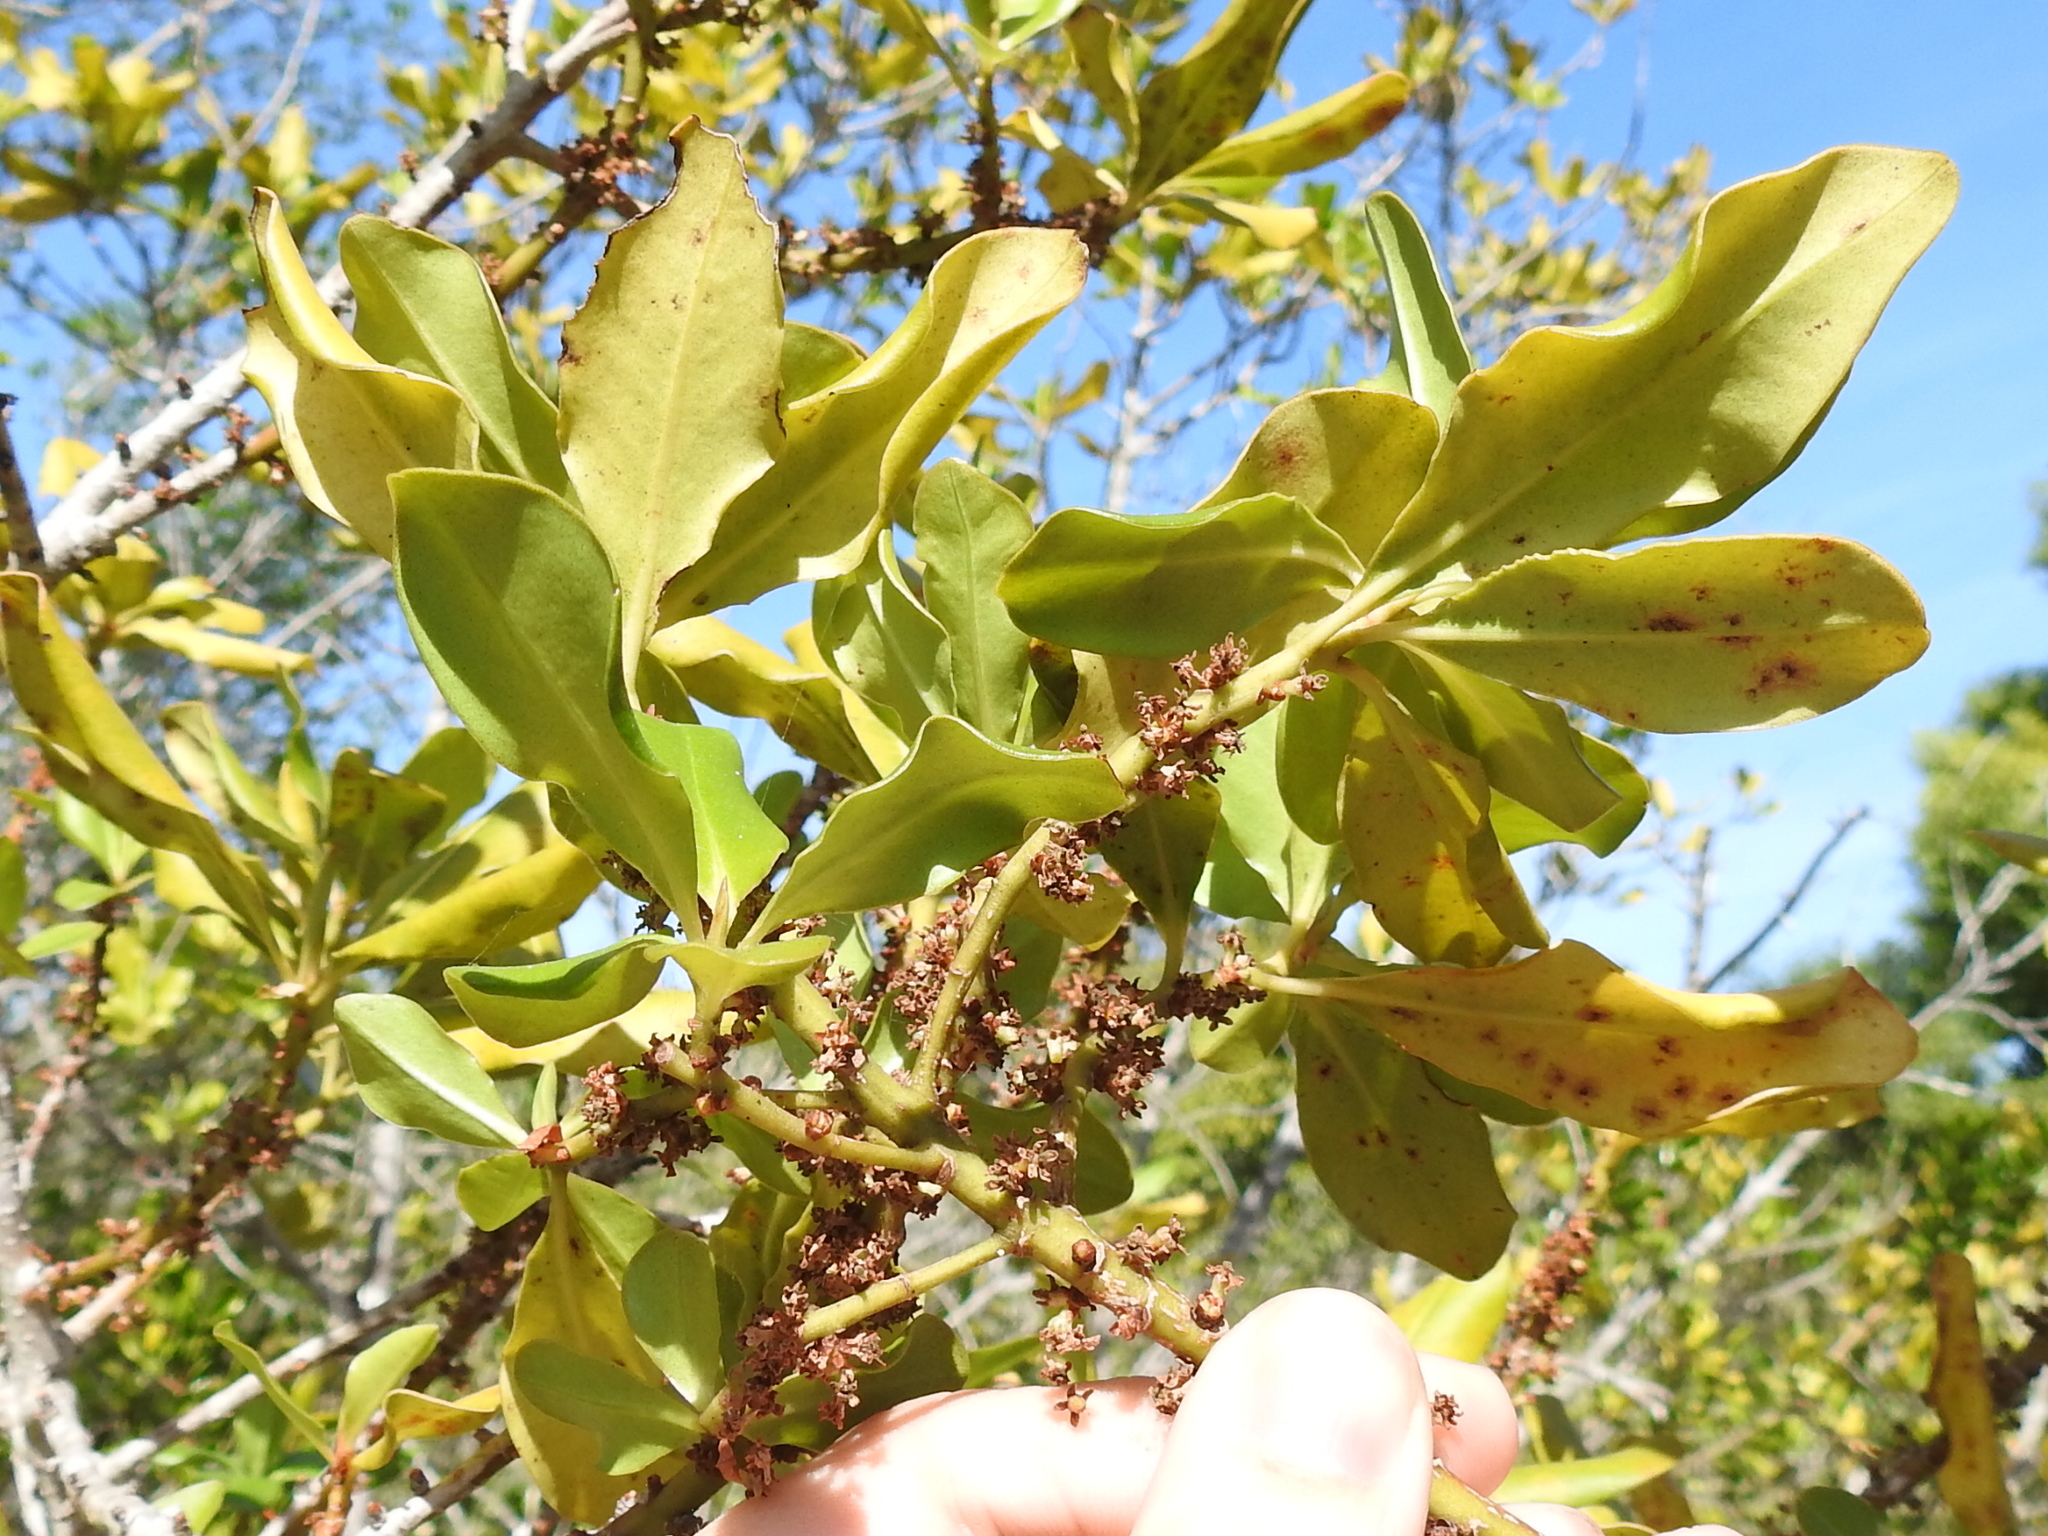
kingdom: Plantae
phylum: Tracheophyta
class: Magnoliopsida
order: Ericales
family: Primulaceae
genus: Myrsine
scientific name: Myrsine floridana
